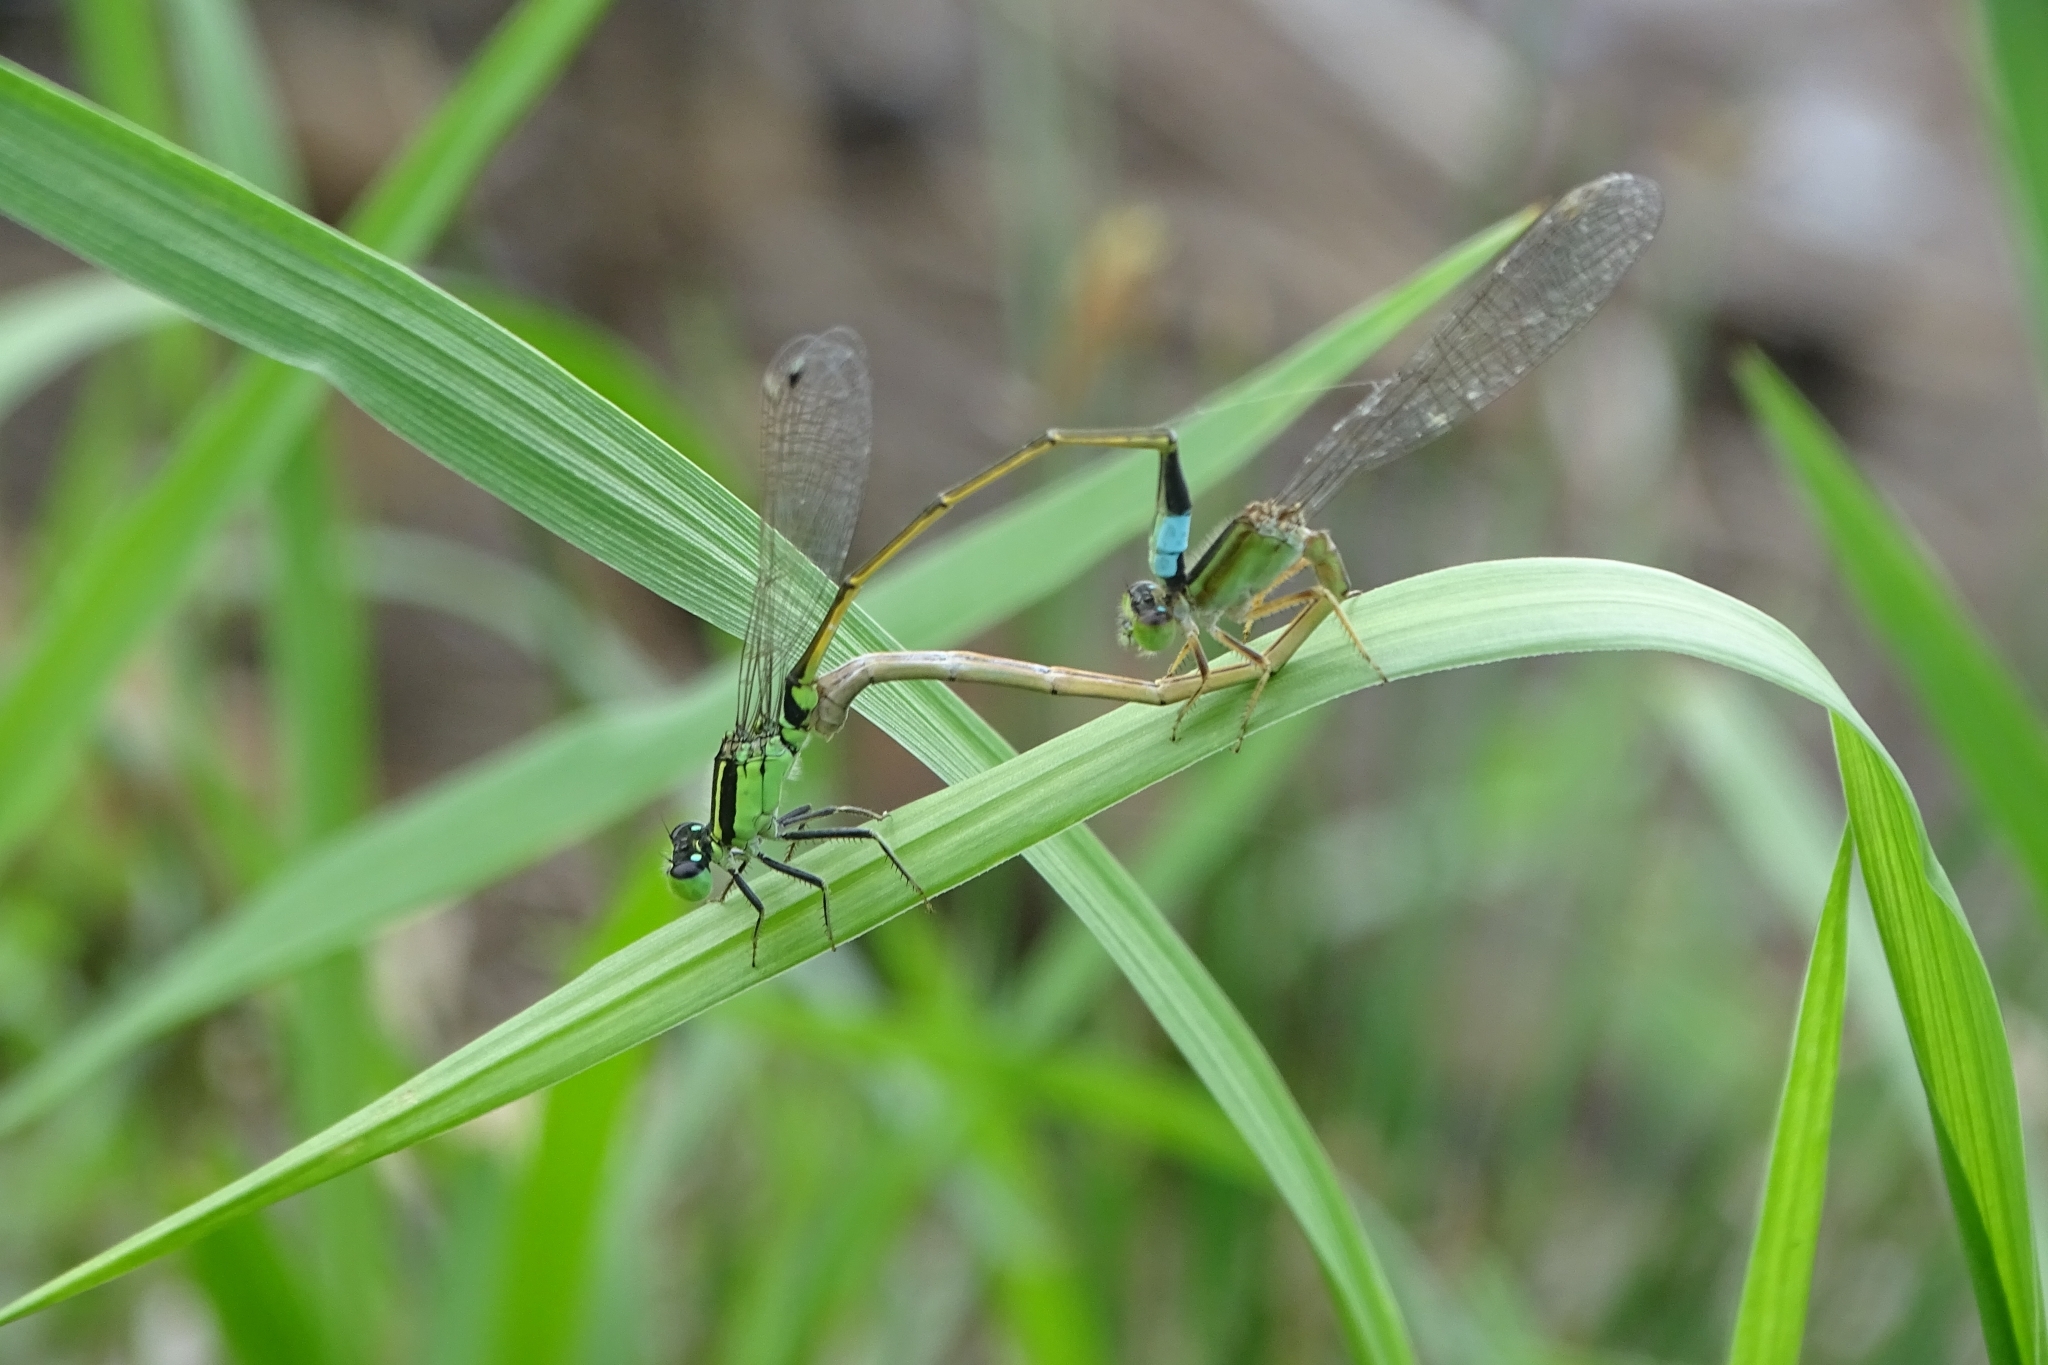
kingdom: Animalia
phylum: Arthropoda
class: Insecta
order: Odonata
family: Coenagrionidae
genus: Ischnura
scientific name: Ischnura senegalensis
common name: Tropical bluetail
